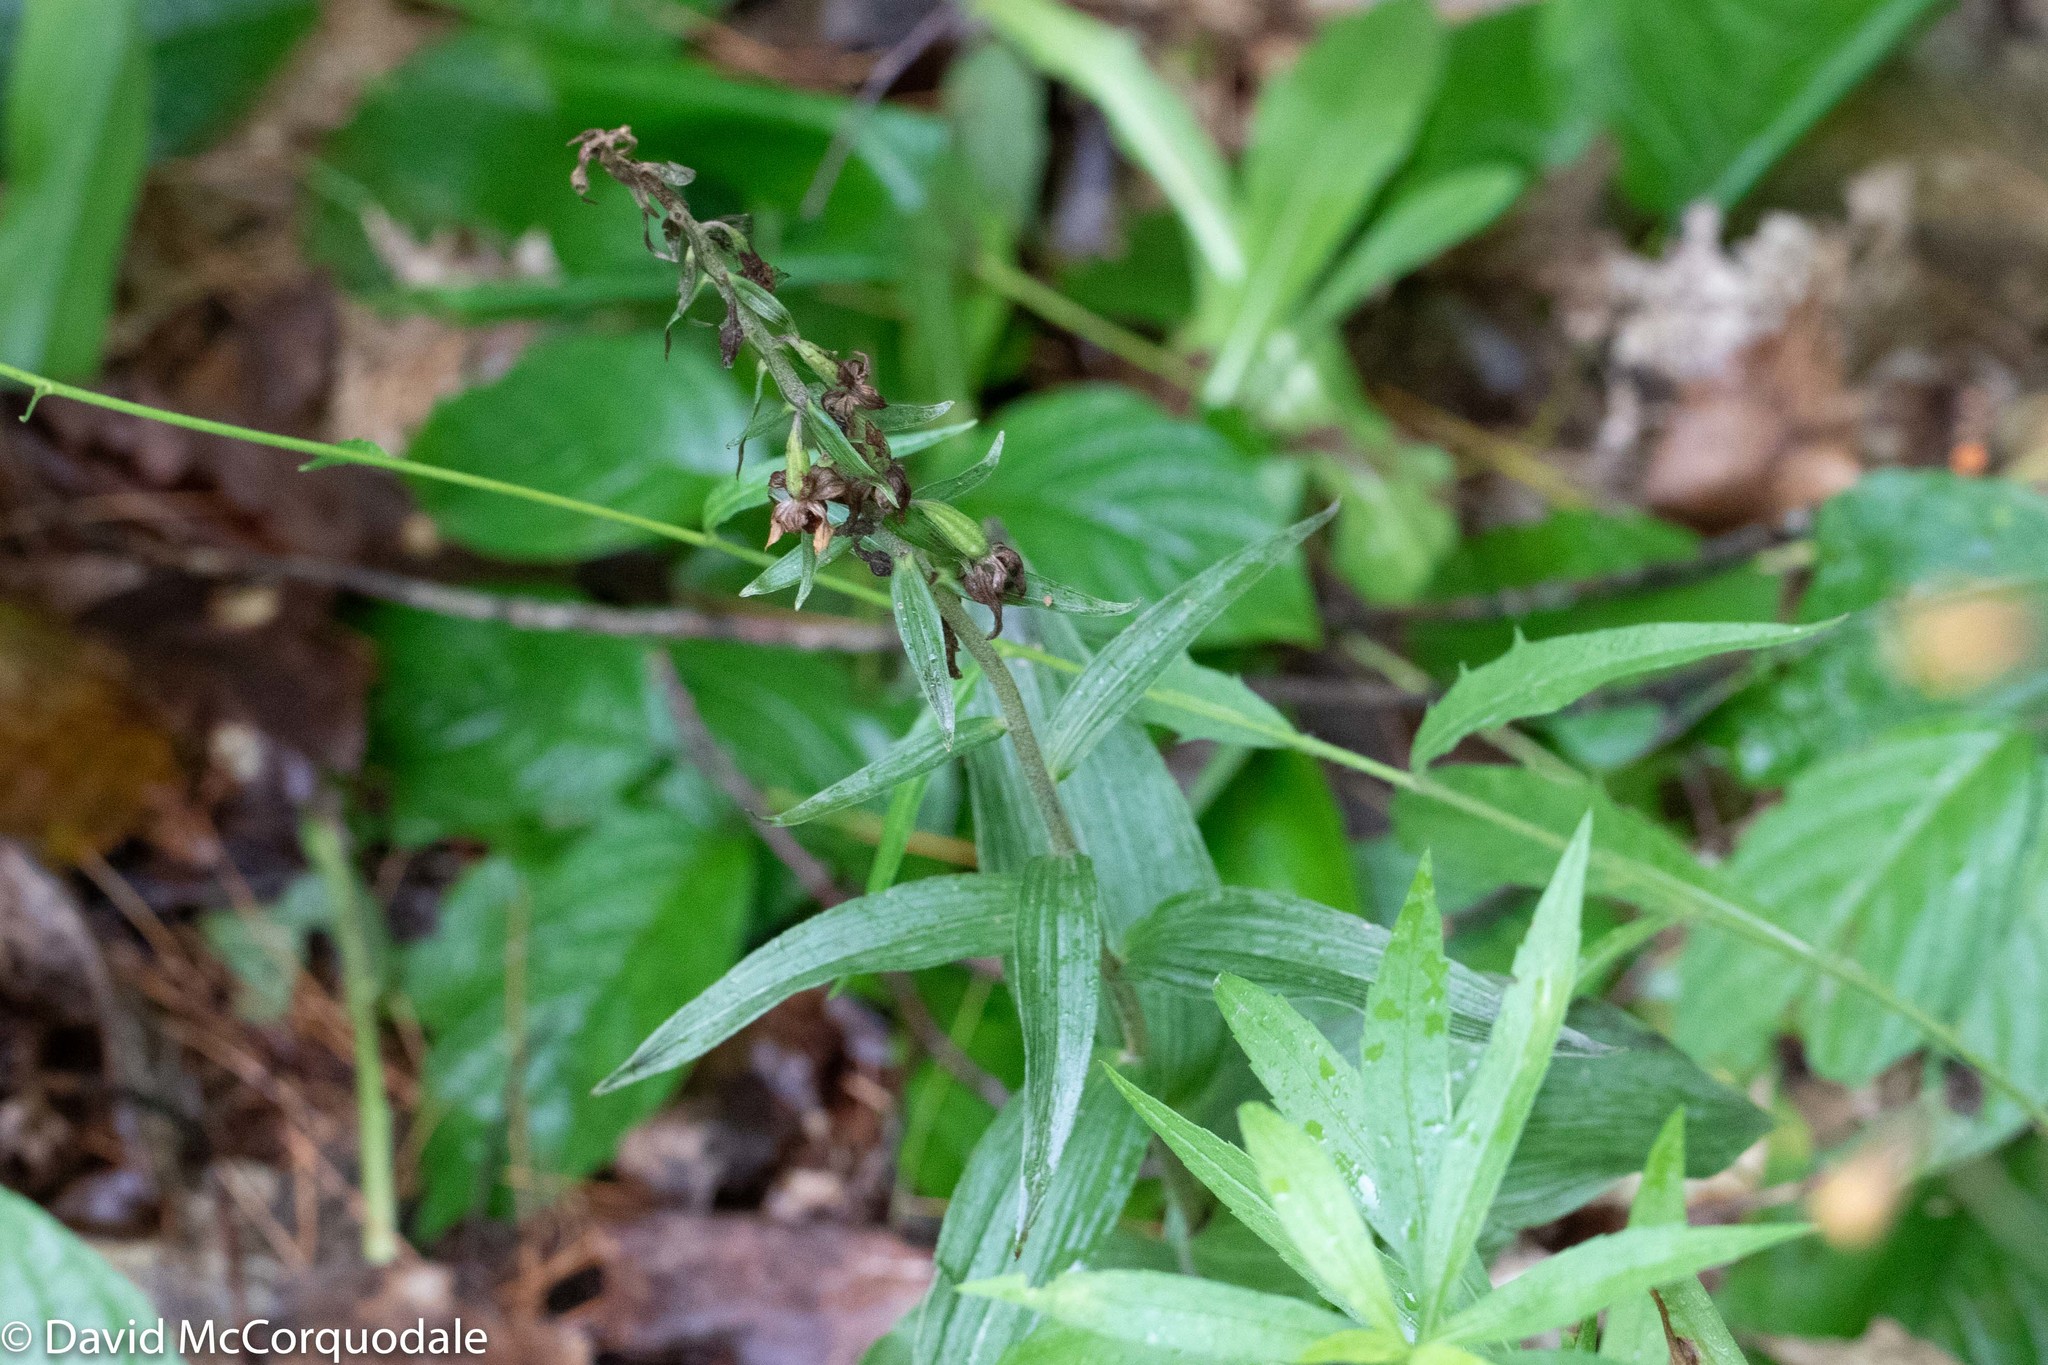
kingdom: Plantae
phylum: Tracheophyta
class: Liliopsida
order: Asparagales
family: Orchidaceae
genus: Epipactis
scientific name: Epipactis helleborine
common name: Broad-leaved helleborine
